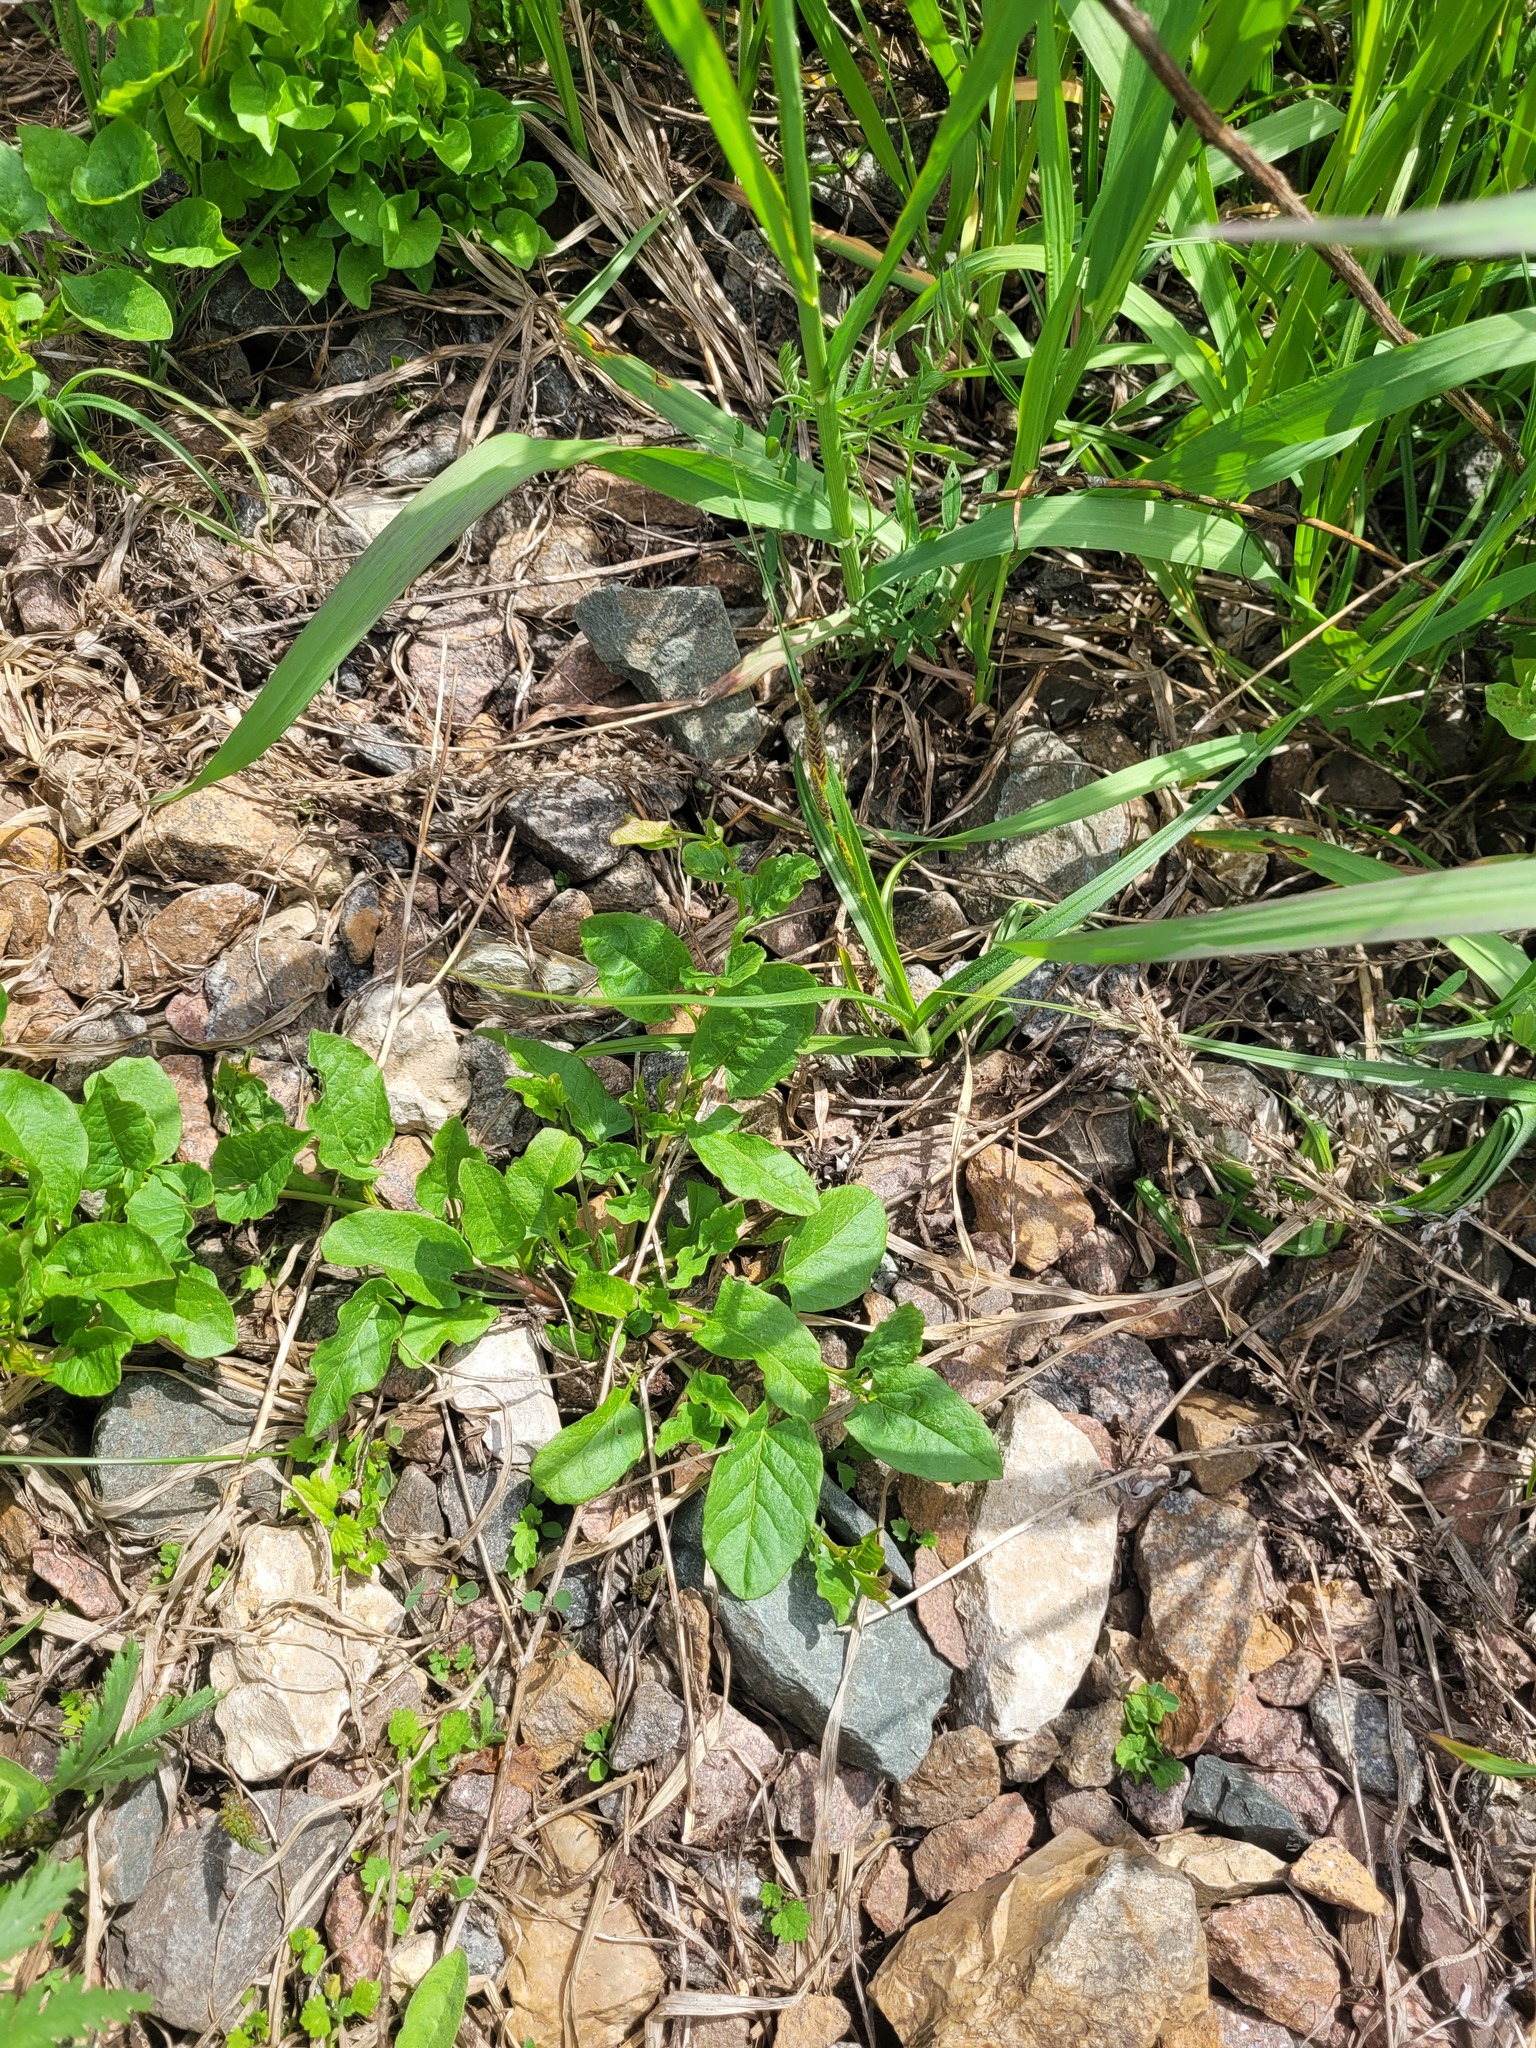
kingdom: Plantae
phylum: Tracheophyta
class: Magnoliopsida
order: Solanales
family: Convolvulaceae
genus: Convolvulus
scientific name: Convolvulus arvensis
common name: Field bindweed
